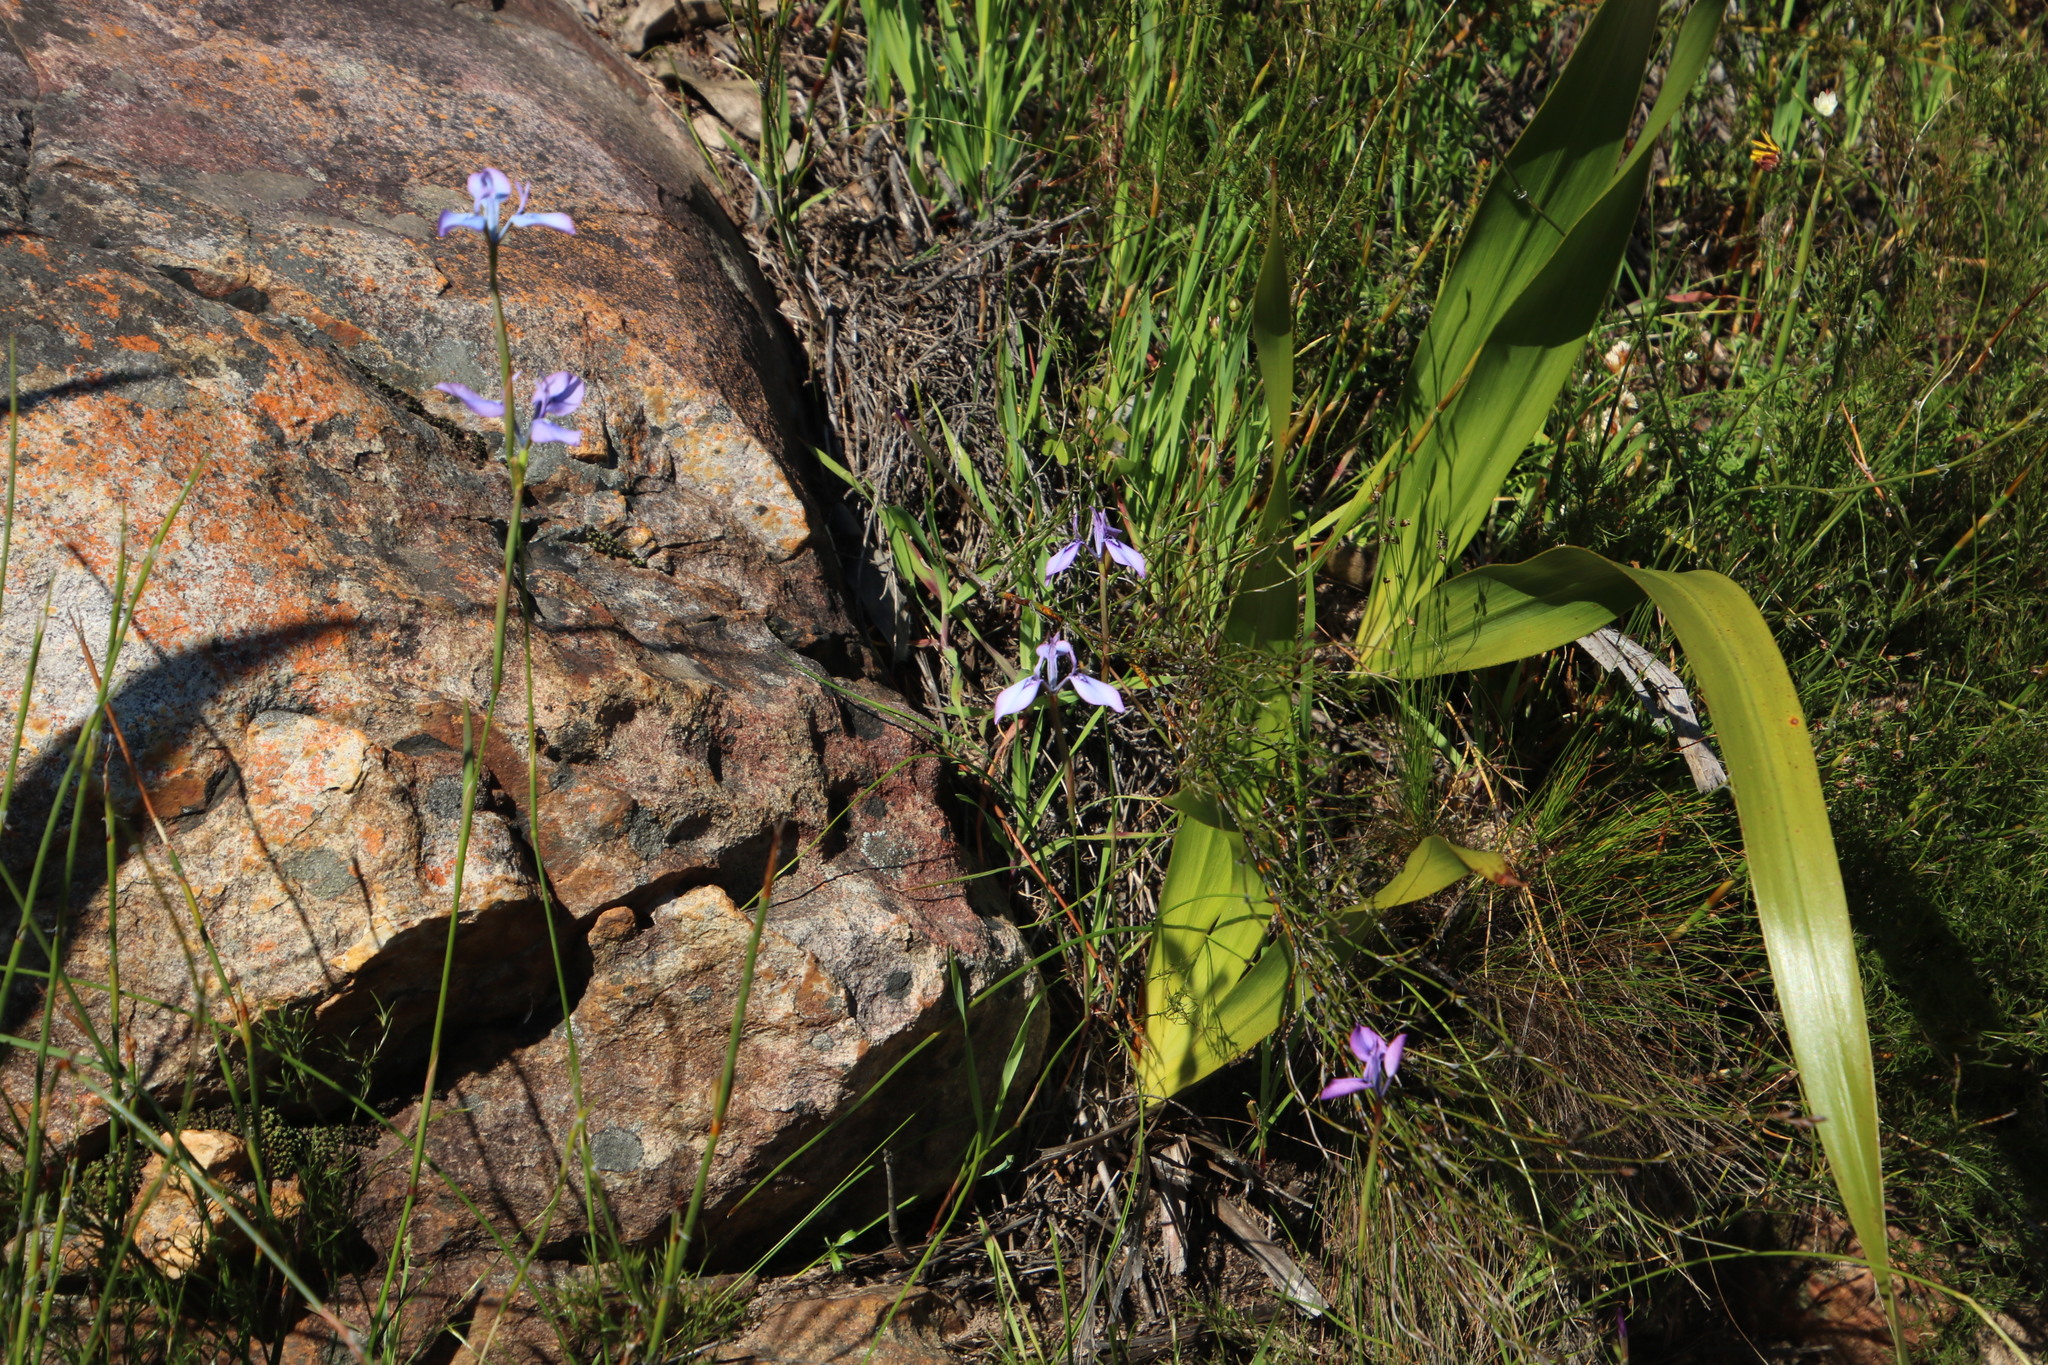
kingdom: Plantae
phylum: Tracheophyta
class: Liliopsida
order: Asparagales
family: Iridaceae
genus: Moraea
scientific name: Moraea tripetala
